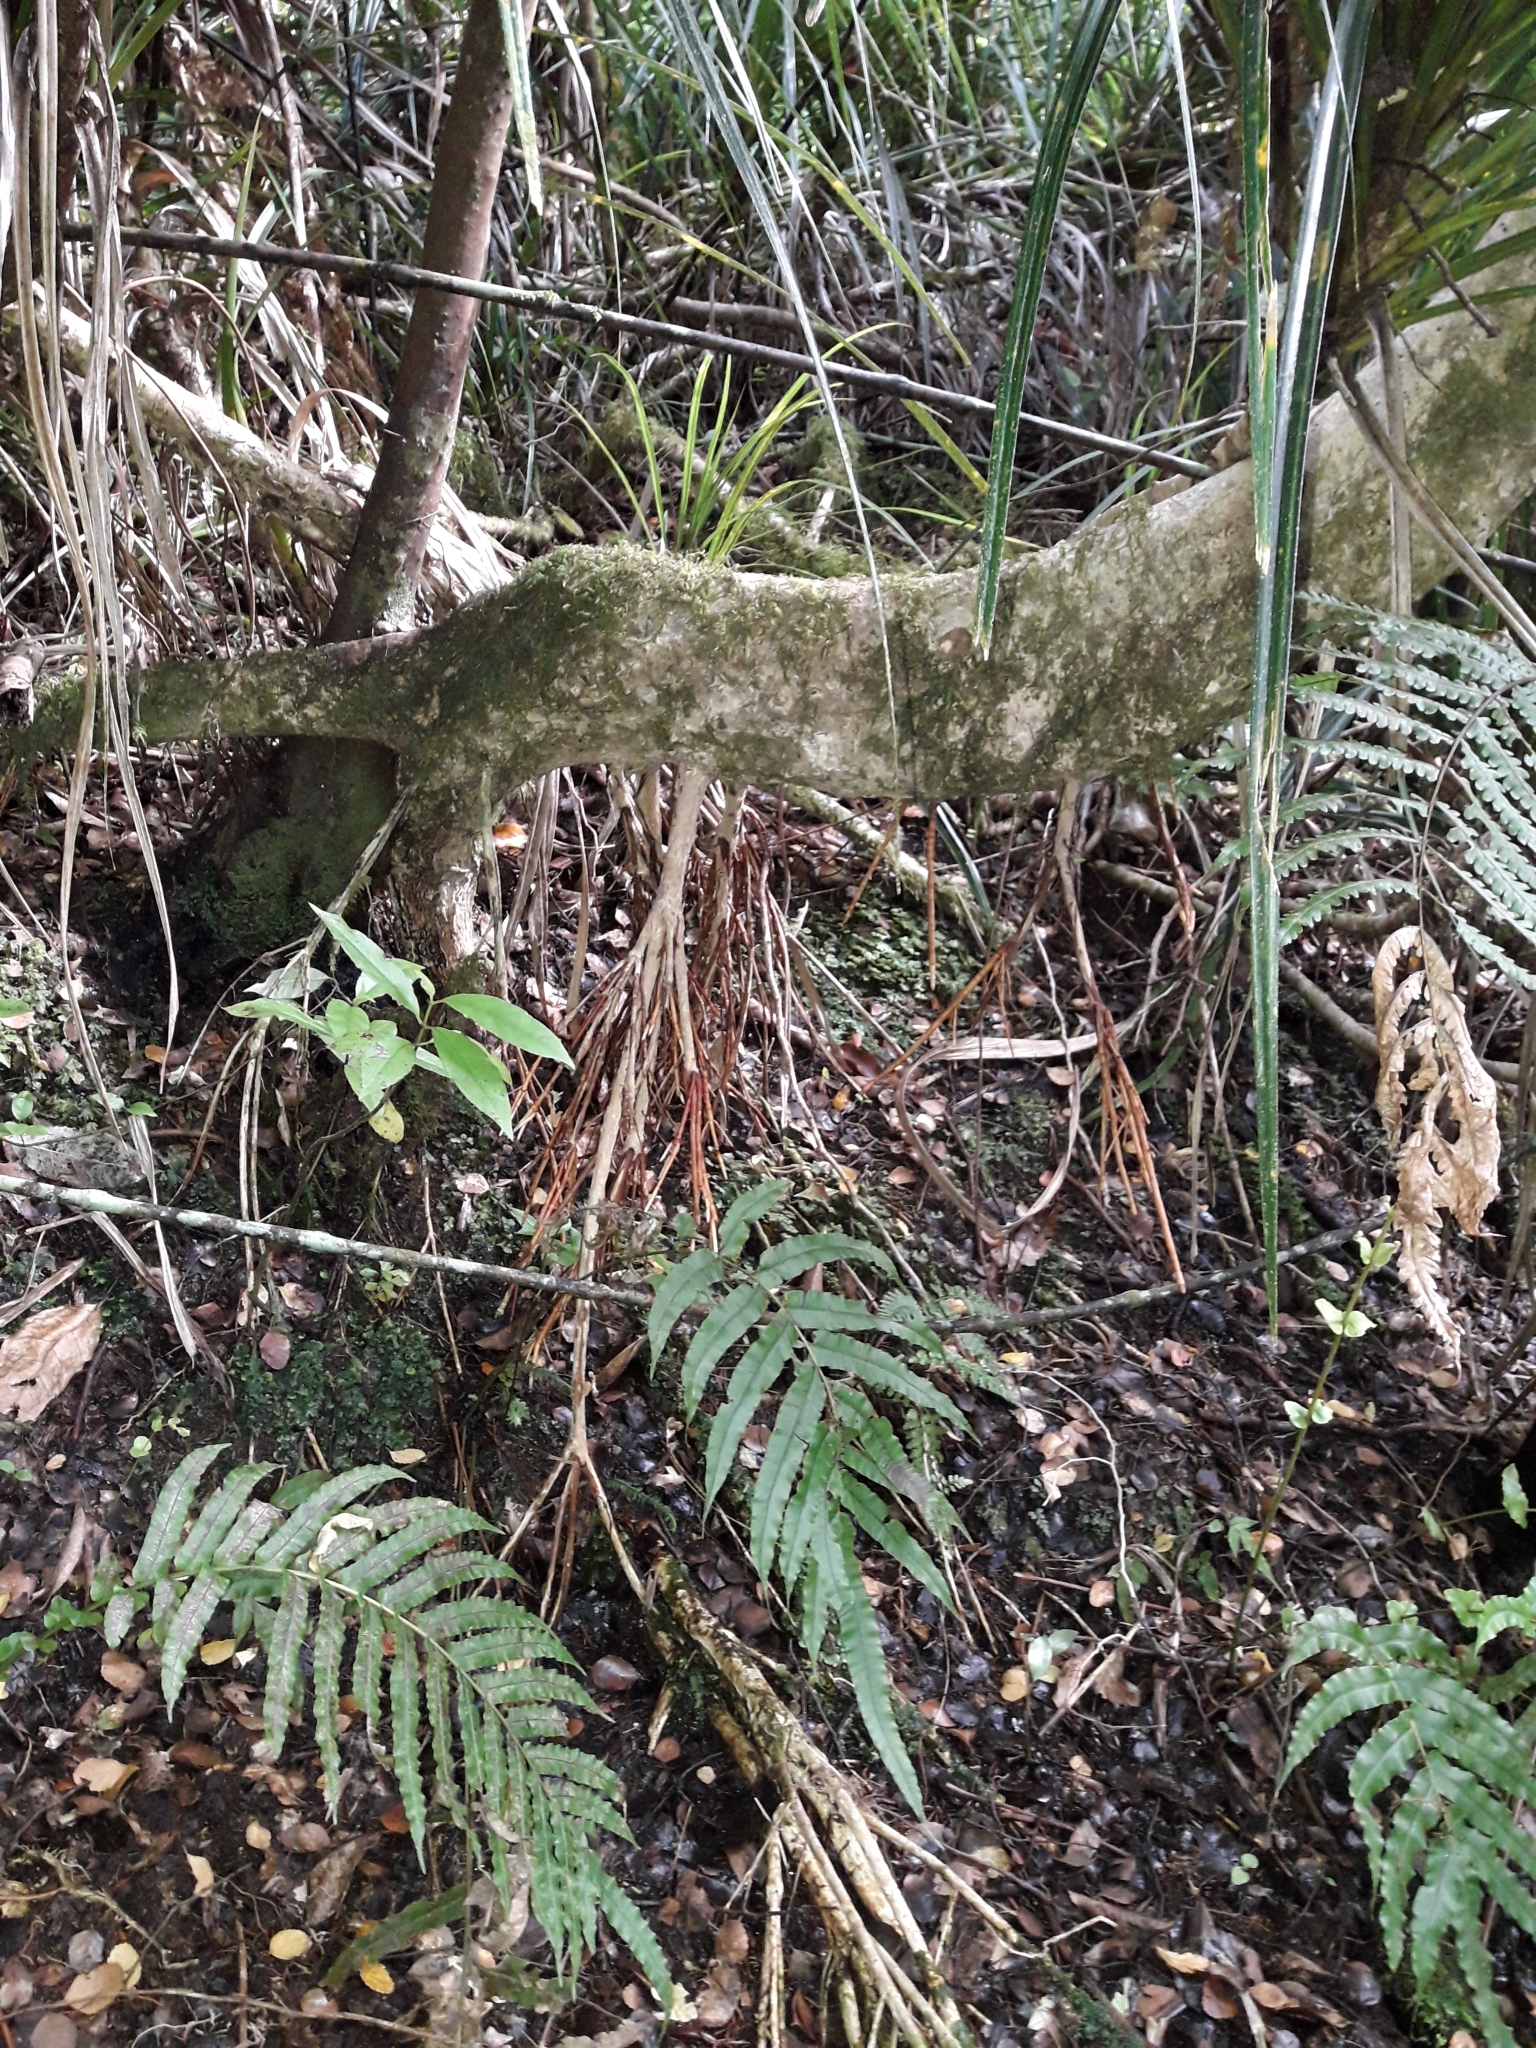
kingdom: Plantae
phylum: Tracheophyta
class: Magnoliopsida
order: Myrtales
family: Myrtaceae
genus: Syzygium
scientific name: Syzygium maire
